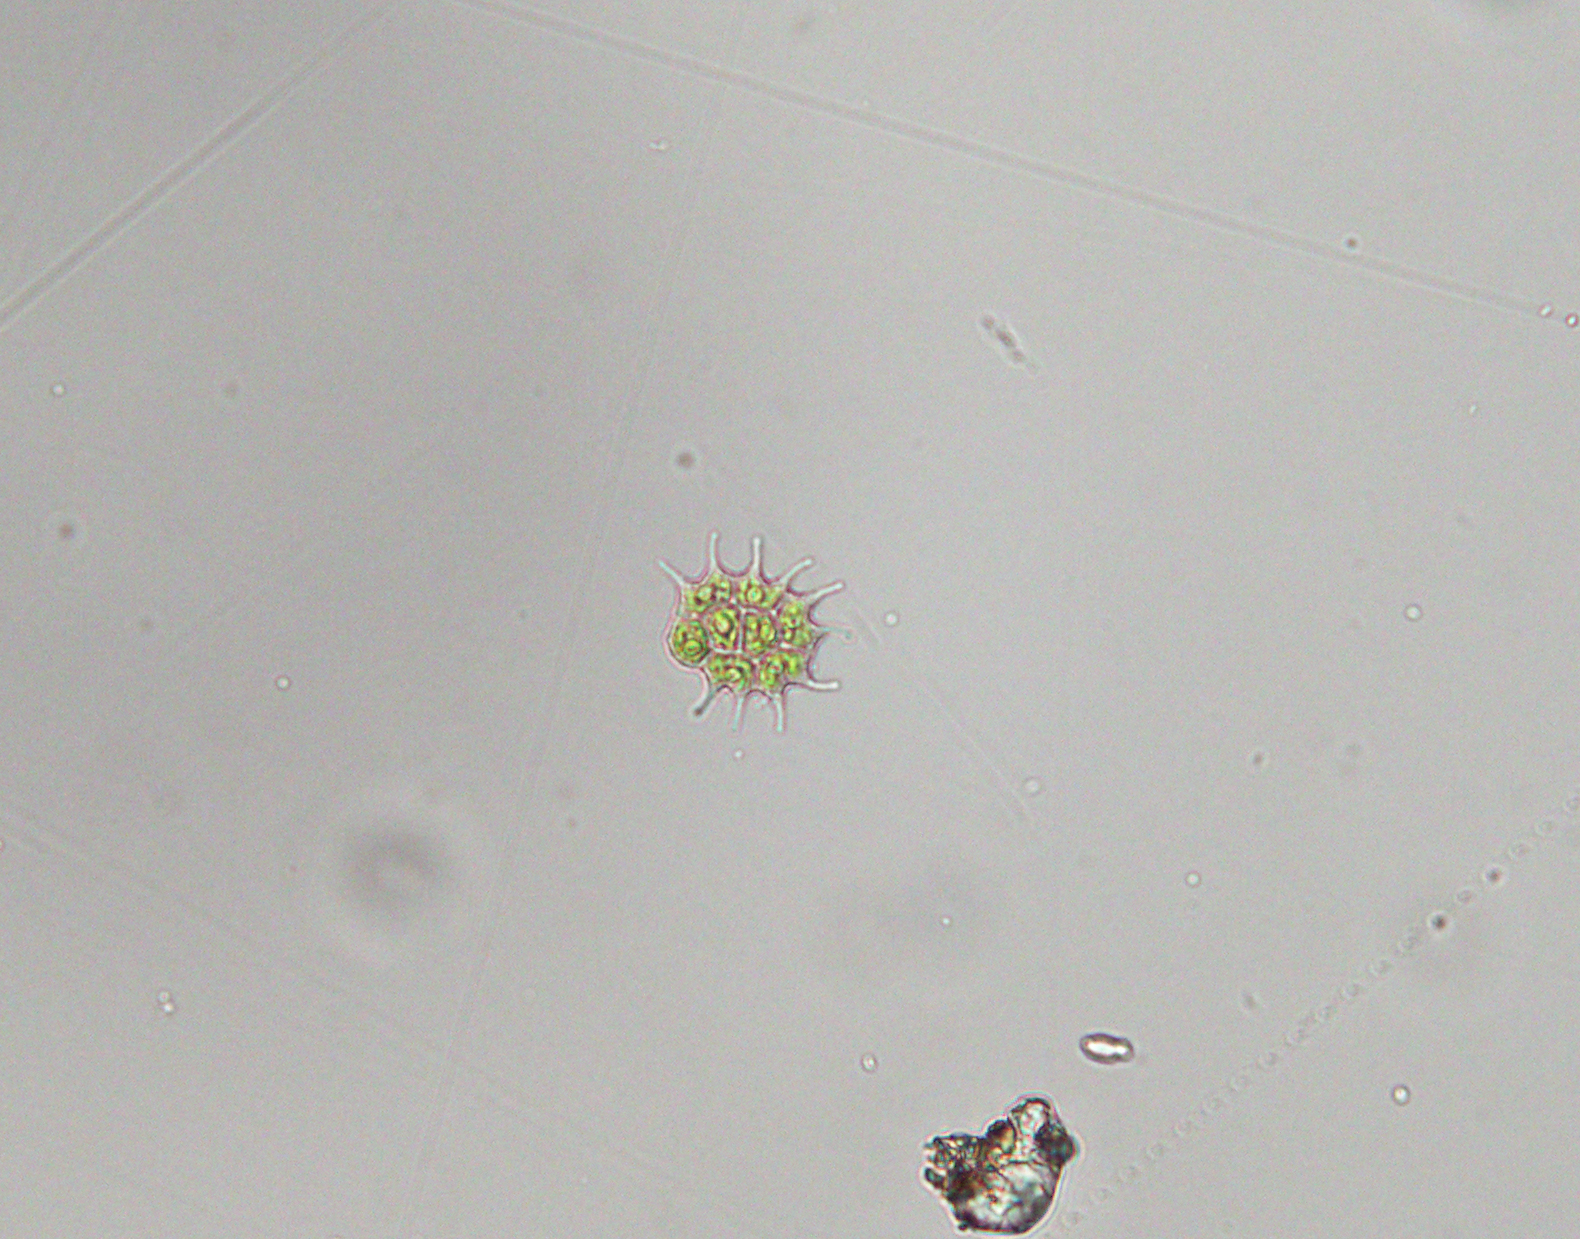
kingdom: Plantae
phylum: Chlorophyta
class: Chlorophyceae
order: Sphaeropleales
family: Hydrodictyaceae
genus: Pseudopediastrum
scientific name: Pseudopediastrum boryanum
